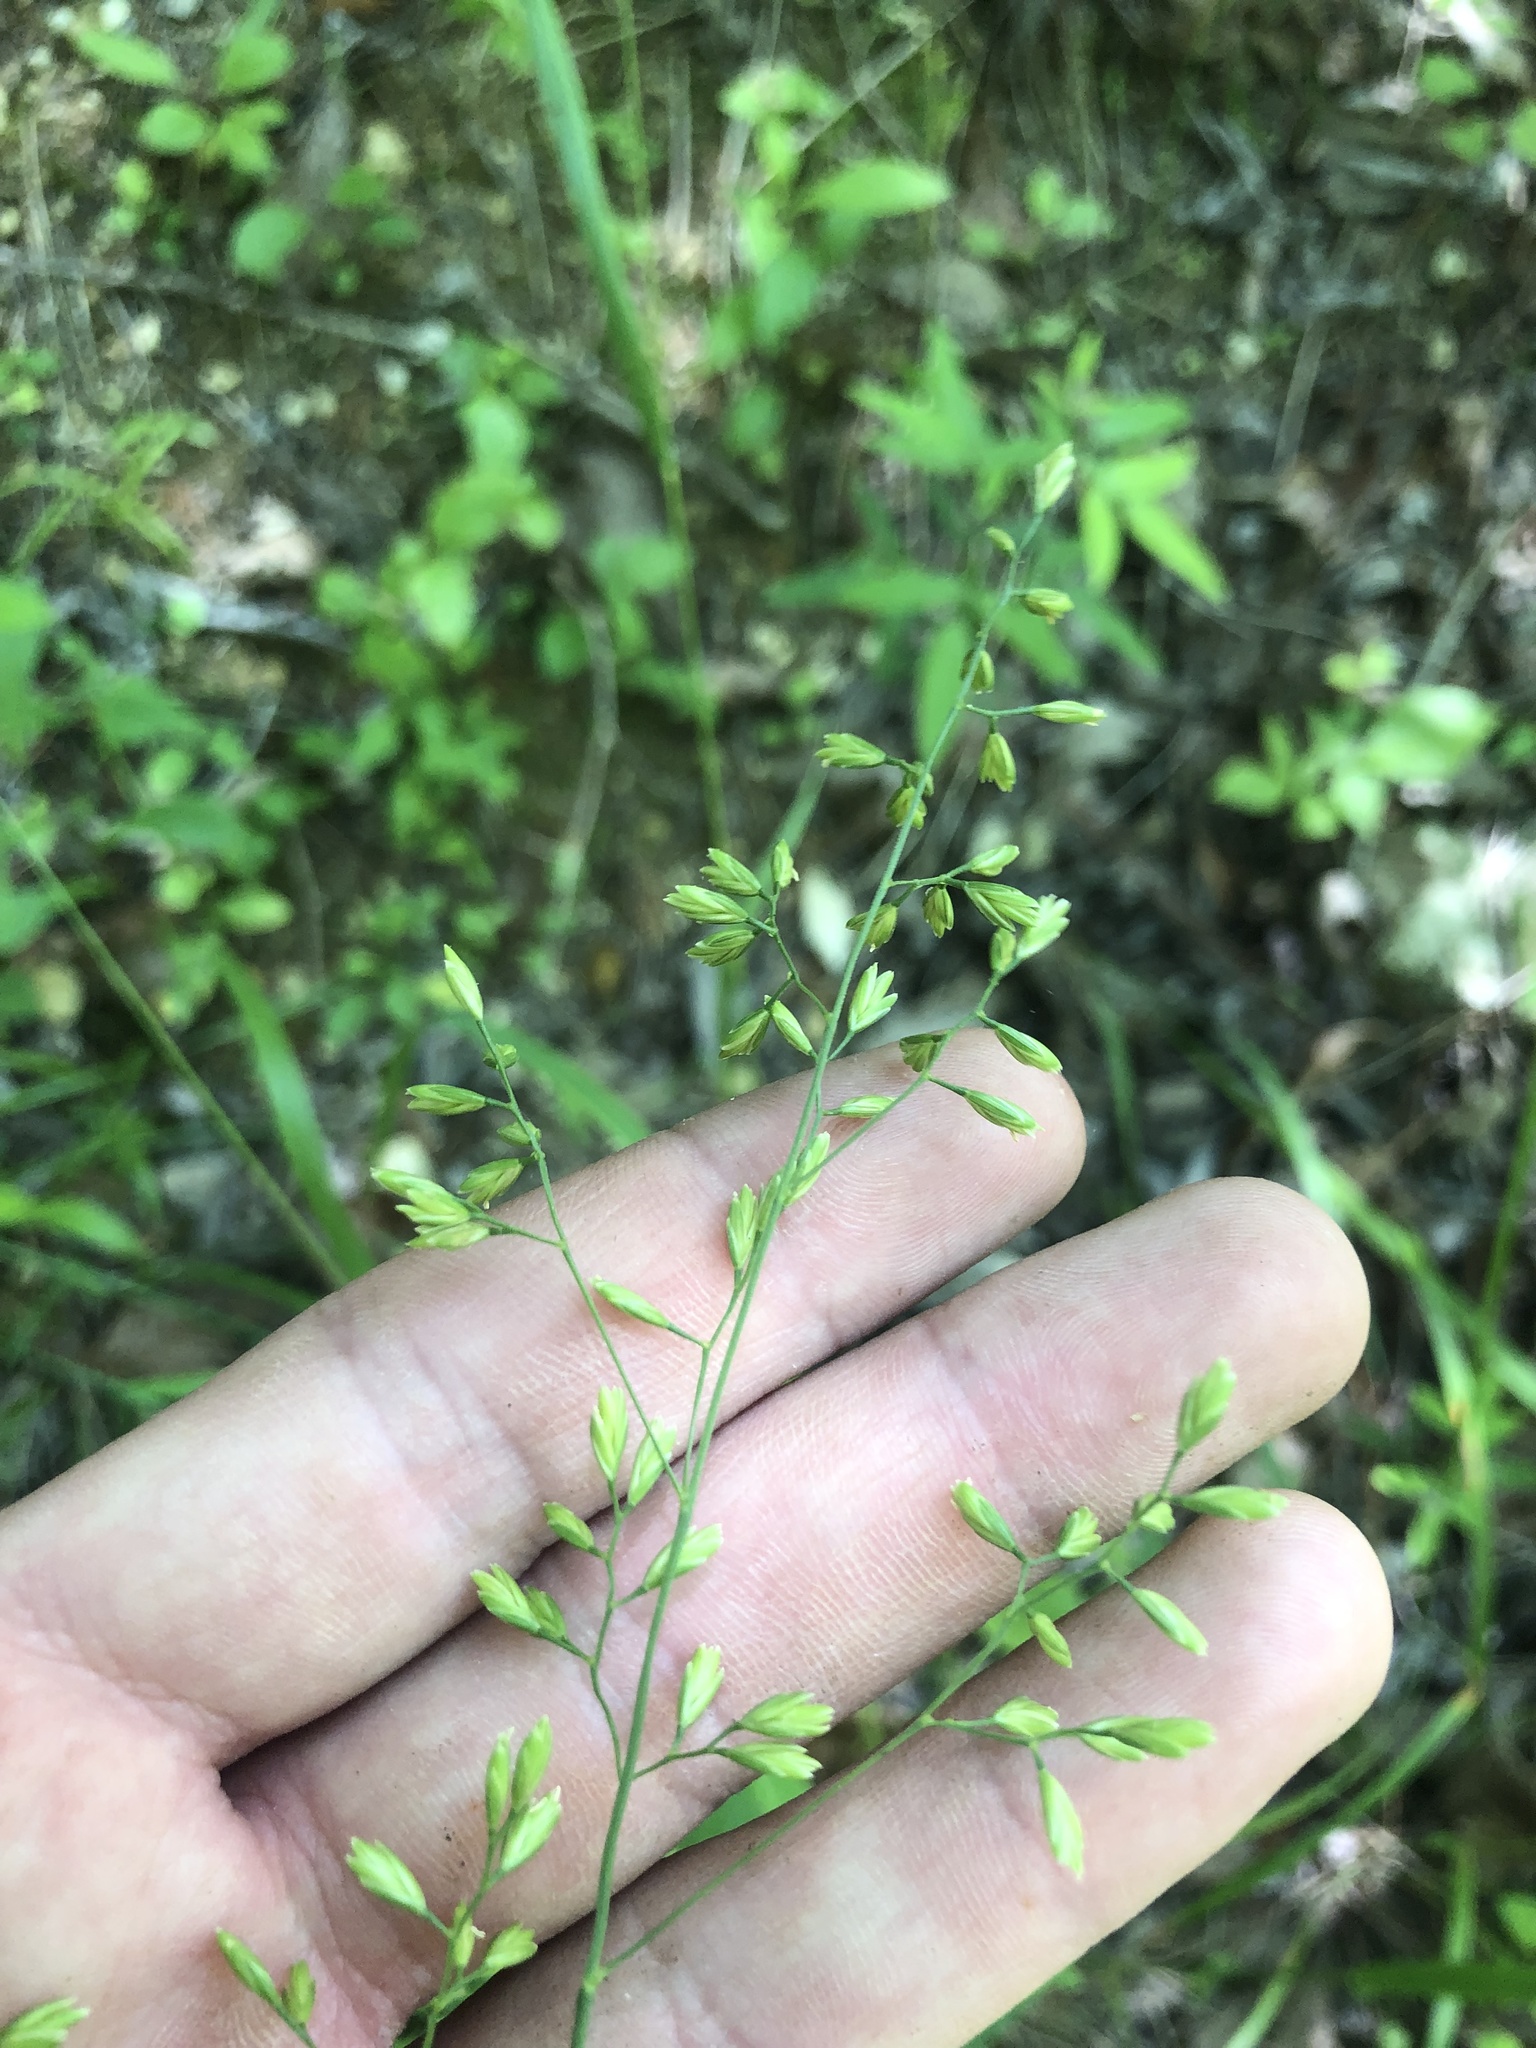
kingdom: Plantae
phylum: Tracheophyta
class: Liliopsida
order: Poales
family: Poaceae
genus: Festuca
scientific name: Festuca paradoxa
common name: Cluster fescue
